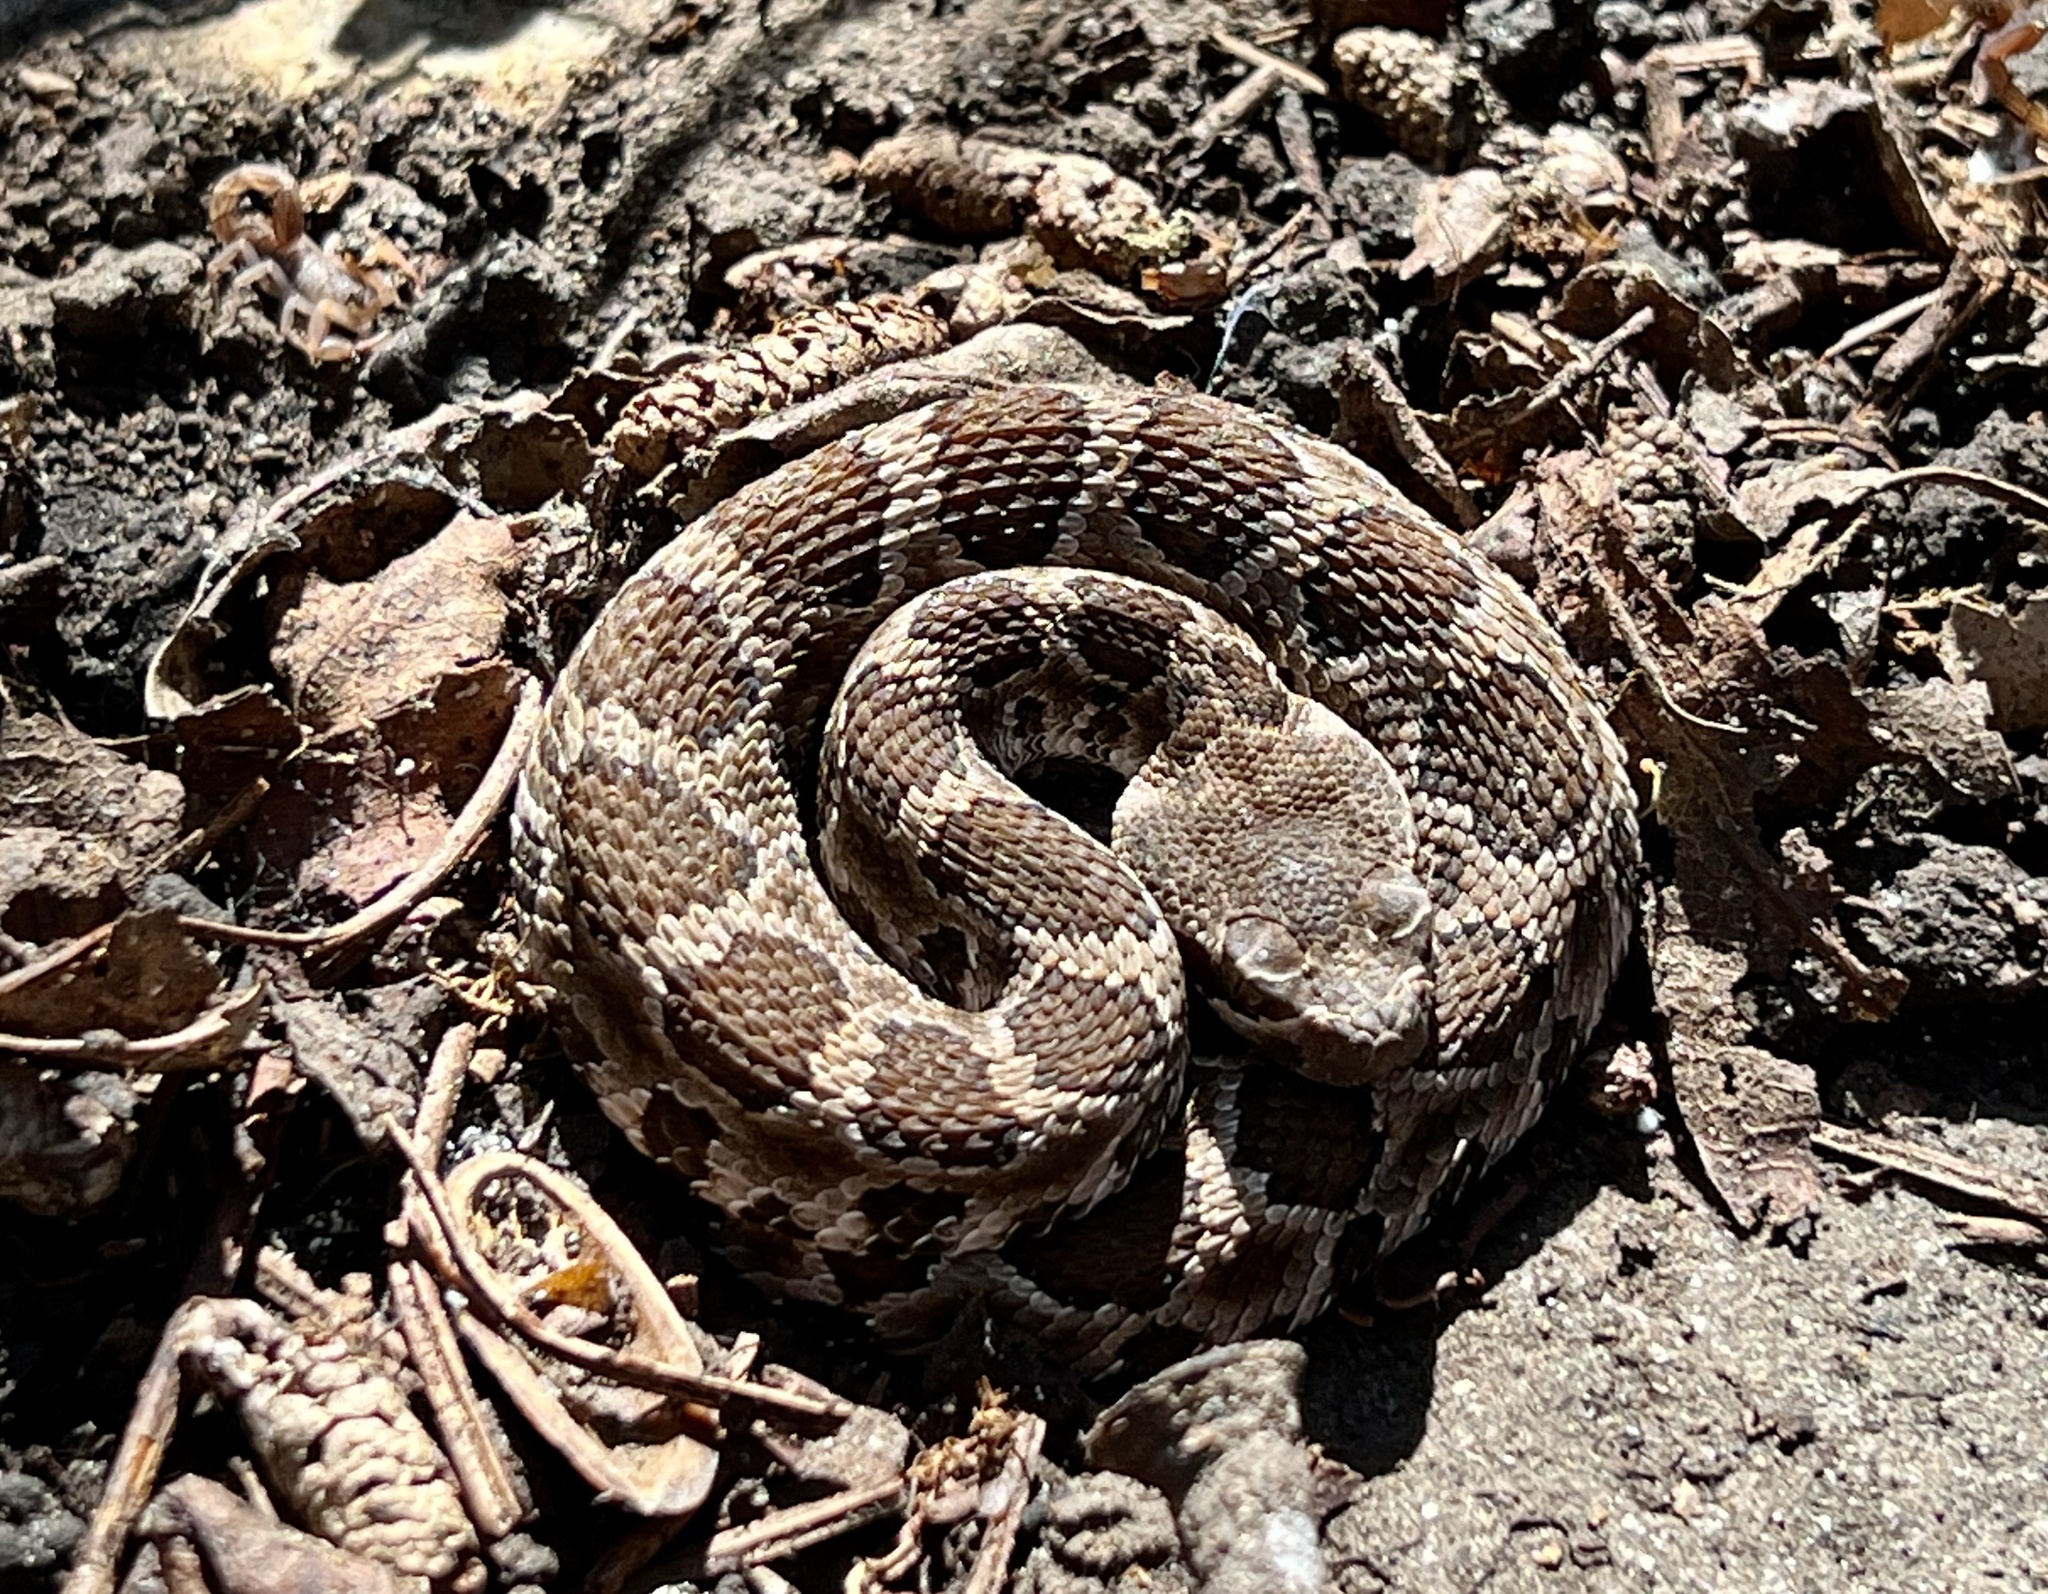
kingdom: Animalia
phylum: Chordata
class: Squamata
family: Viperidae
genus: Crotalus
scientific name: Crotalus oreganus
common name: Abyssus
